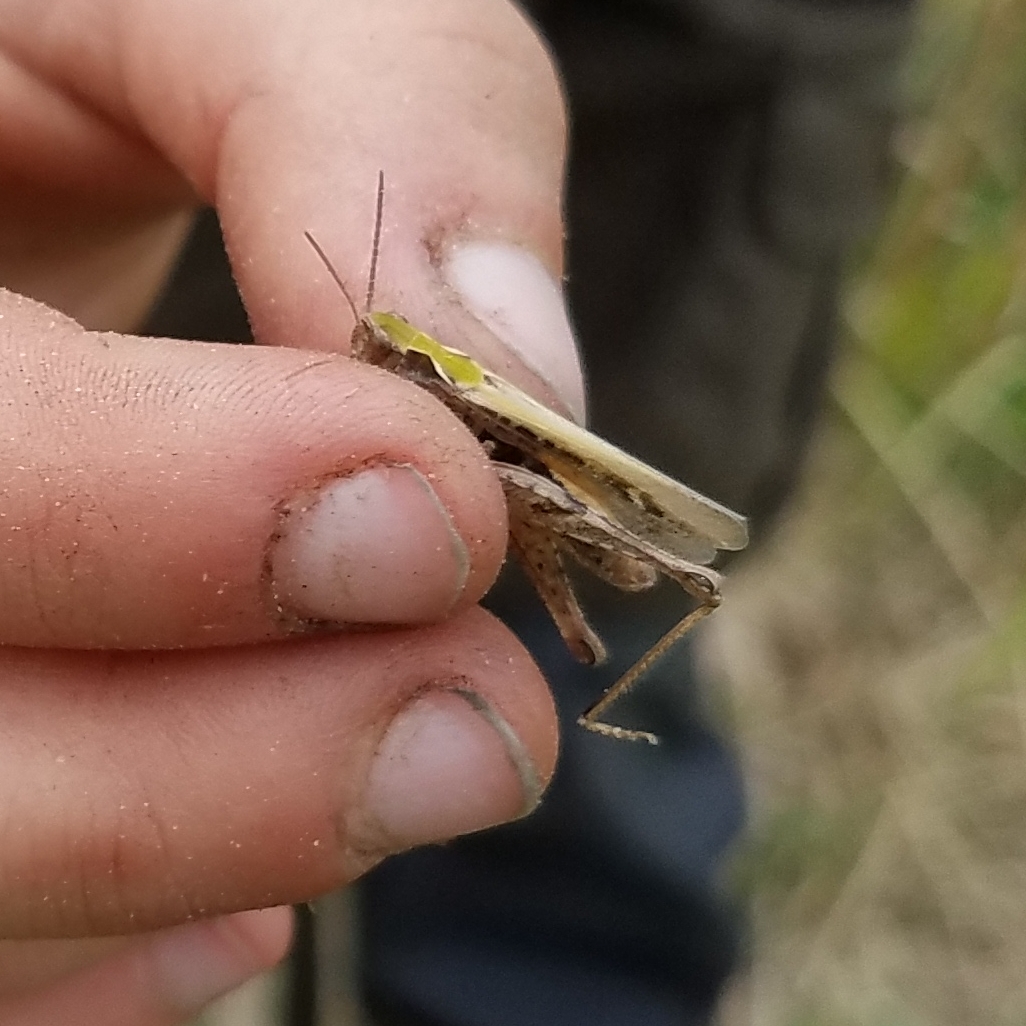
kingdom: Animalia
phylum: Arthropoda
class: Insecta
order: Orthoptera
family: Acrididae
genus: Chorthippus
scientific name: Chorthippus brunneus
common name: Field grasshopper
